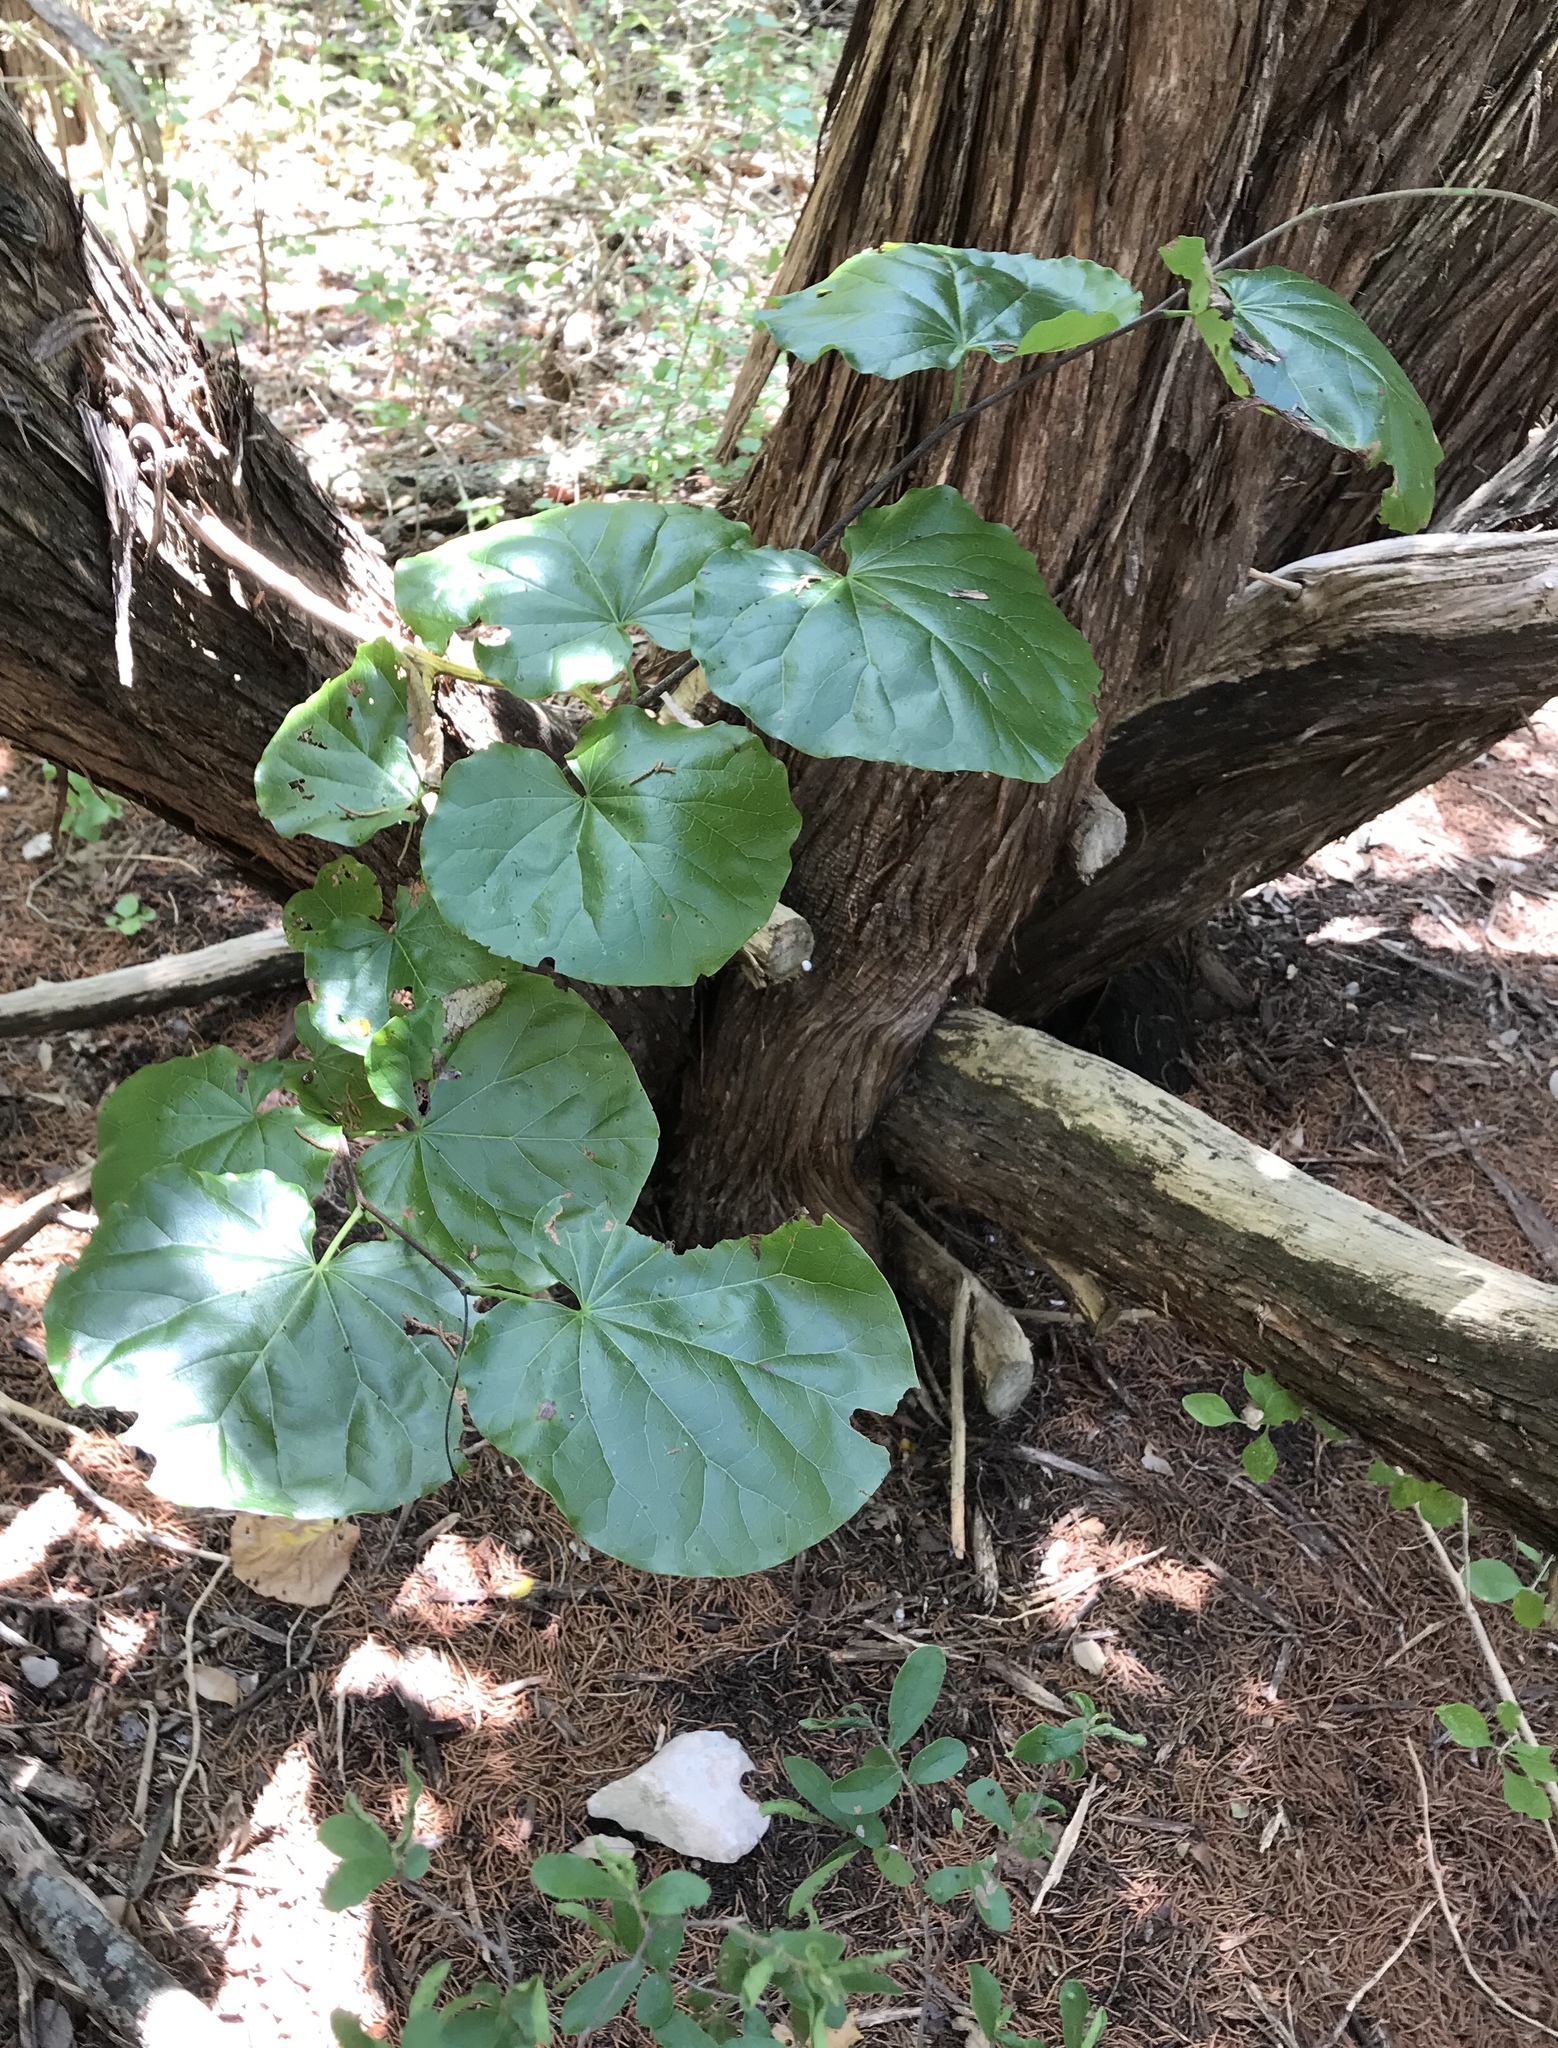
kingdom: Plantae
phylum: Tracheophyta
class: Magnoliopsida
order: Fabales
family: Fabaceae
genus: Cercis
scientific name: Cercis canadensis
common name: Eastern redbud
